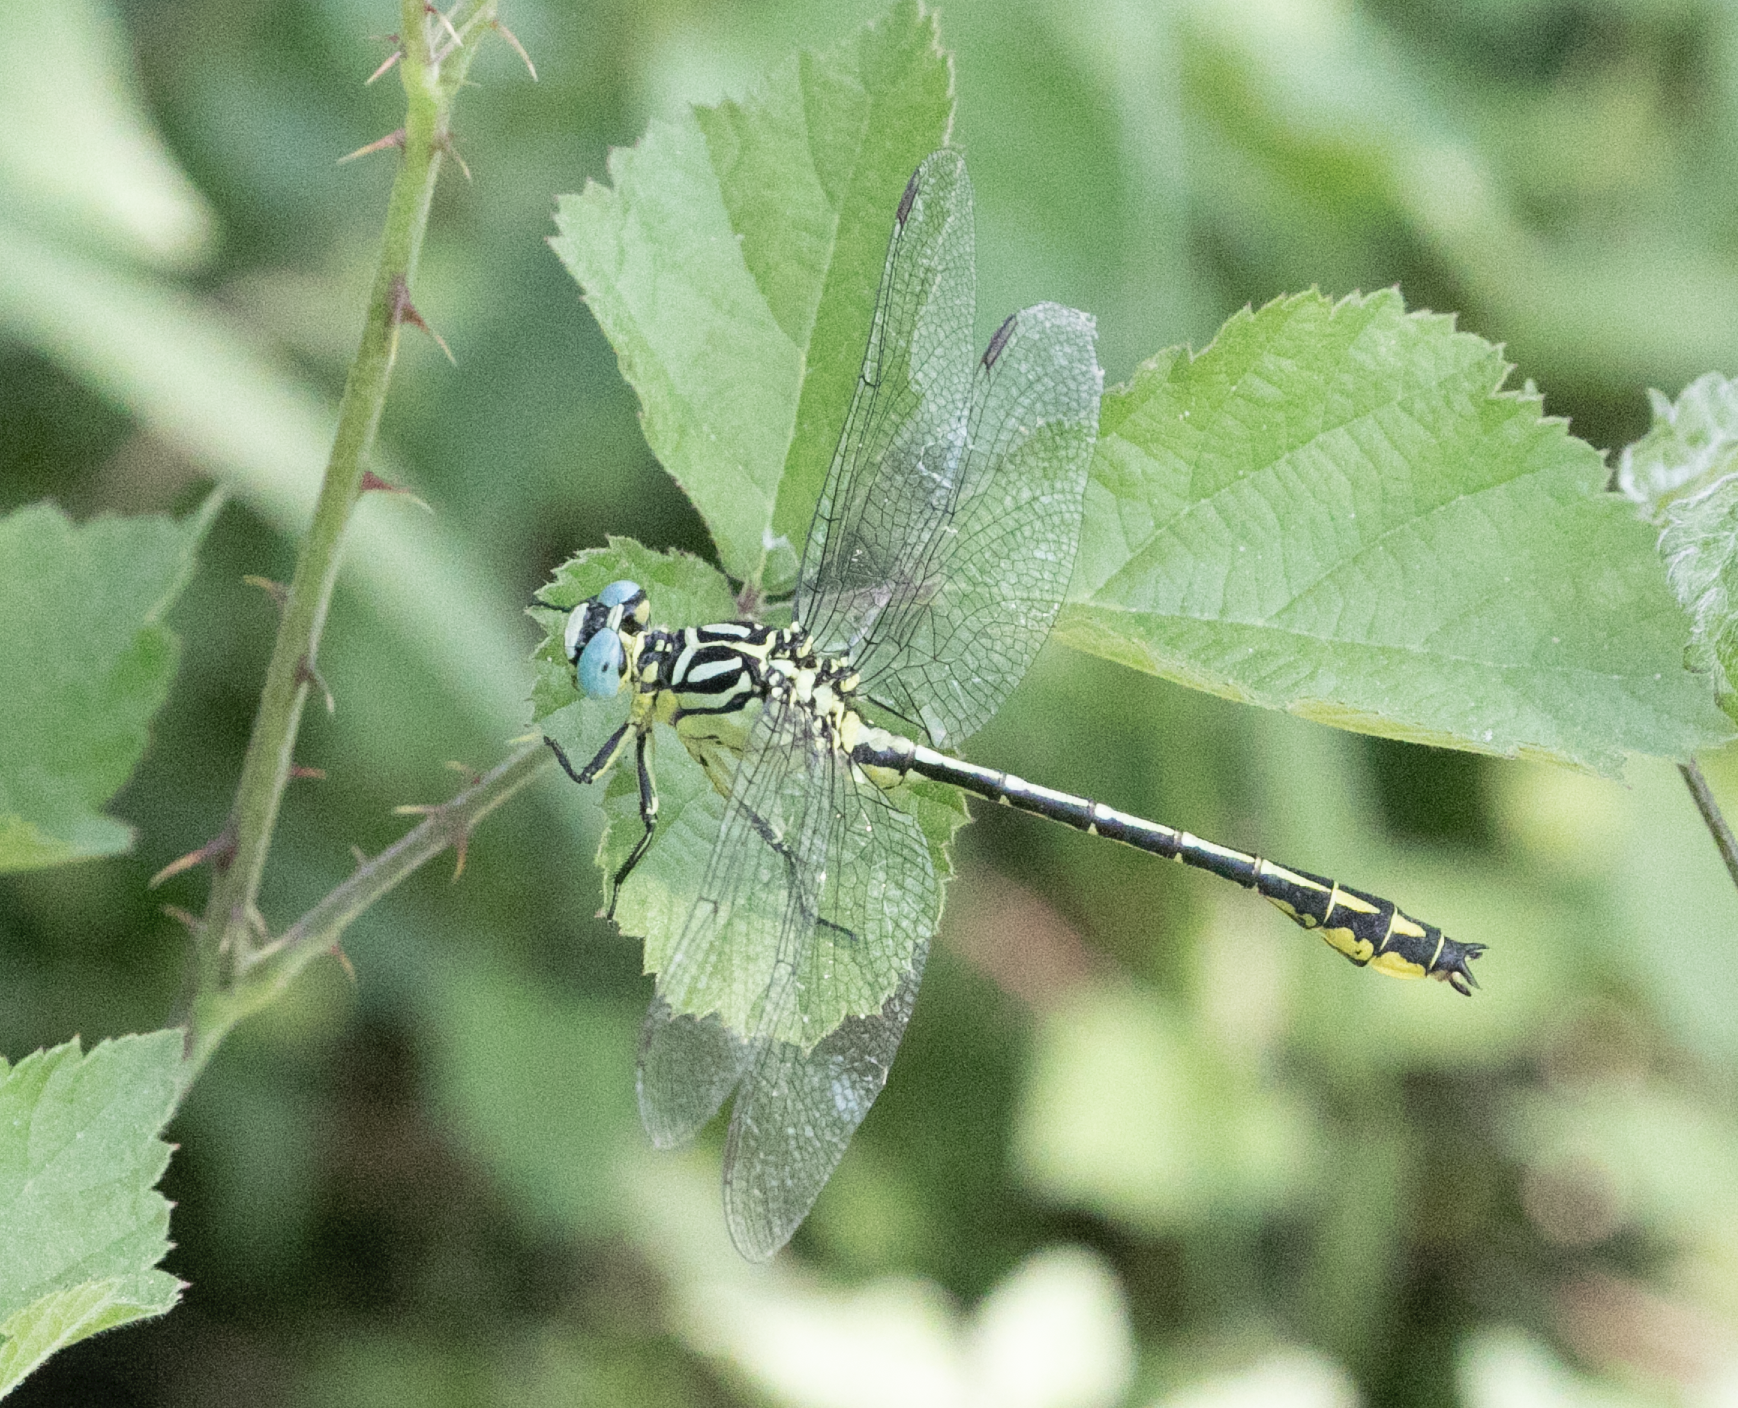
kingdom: Animalia
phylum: Arthropoda
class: Insecta
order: Odonata
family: Gomphidae
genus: Stylurus
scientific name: Stylurus flavipes
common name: River clubtail
